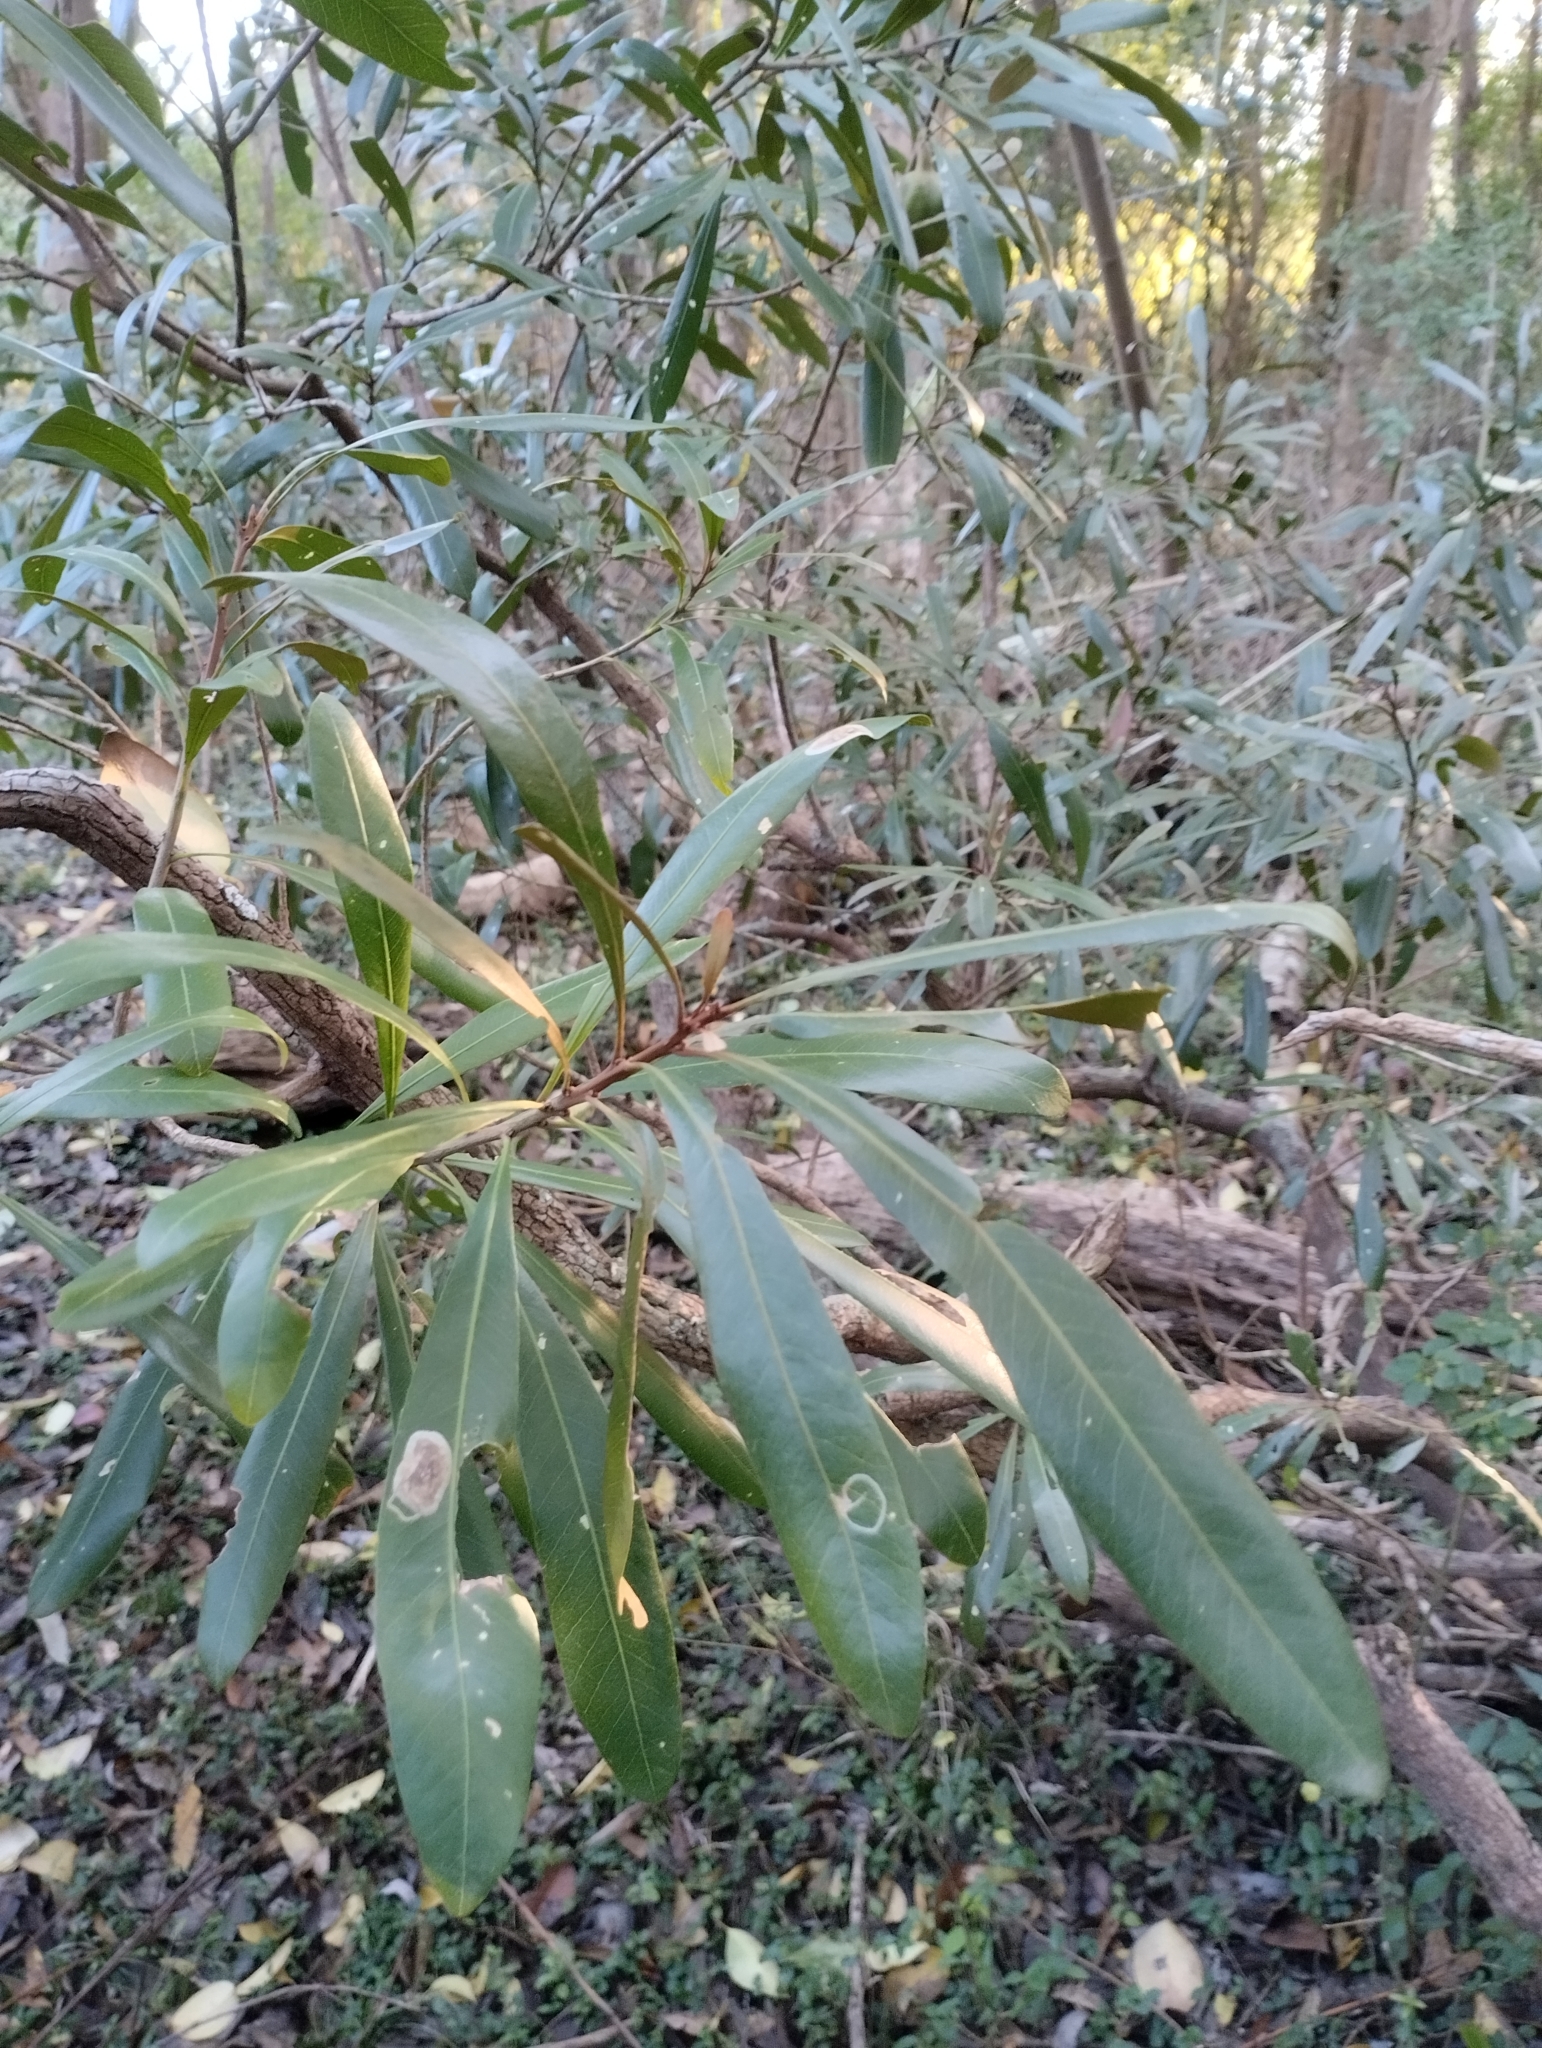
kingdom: Plantae
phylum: Tracheophyta
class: Magnoliopsida
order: Ericales
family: Sapotaceae
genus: Labatia
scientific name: Labatia salicifolia
